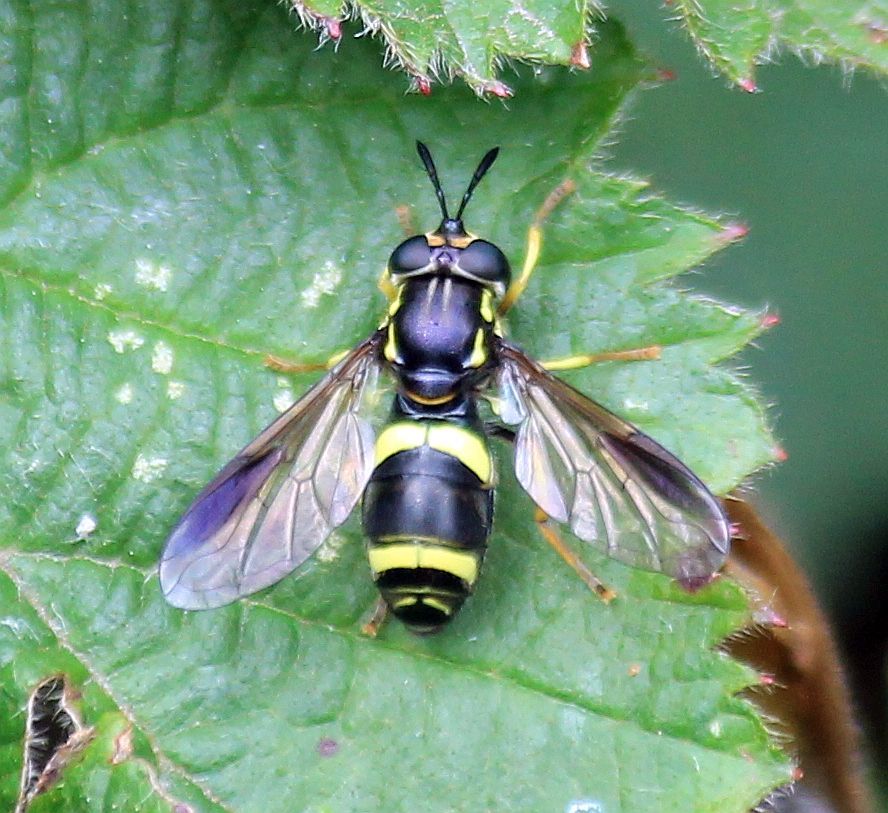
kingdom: Animalia
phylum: Arthropoda
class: Insecta
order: Diptera
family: Syrphidae
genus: Chrysotoxum
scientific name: Chrysotoxum bicincta
